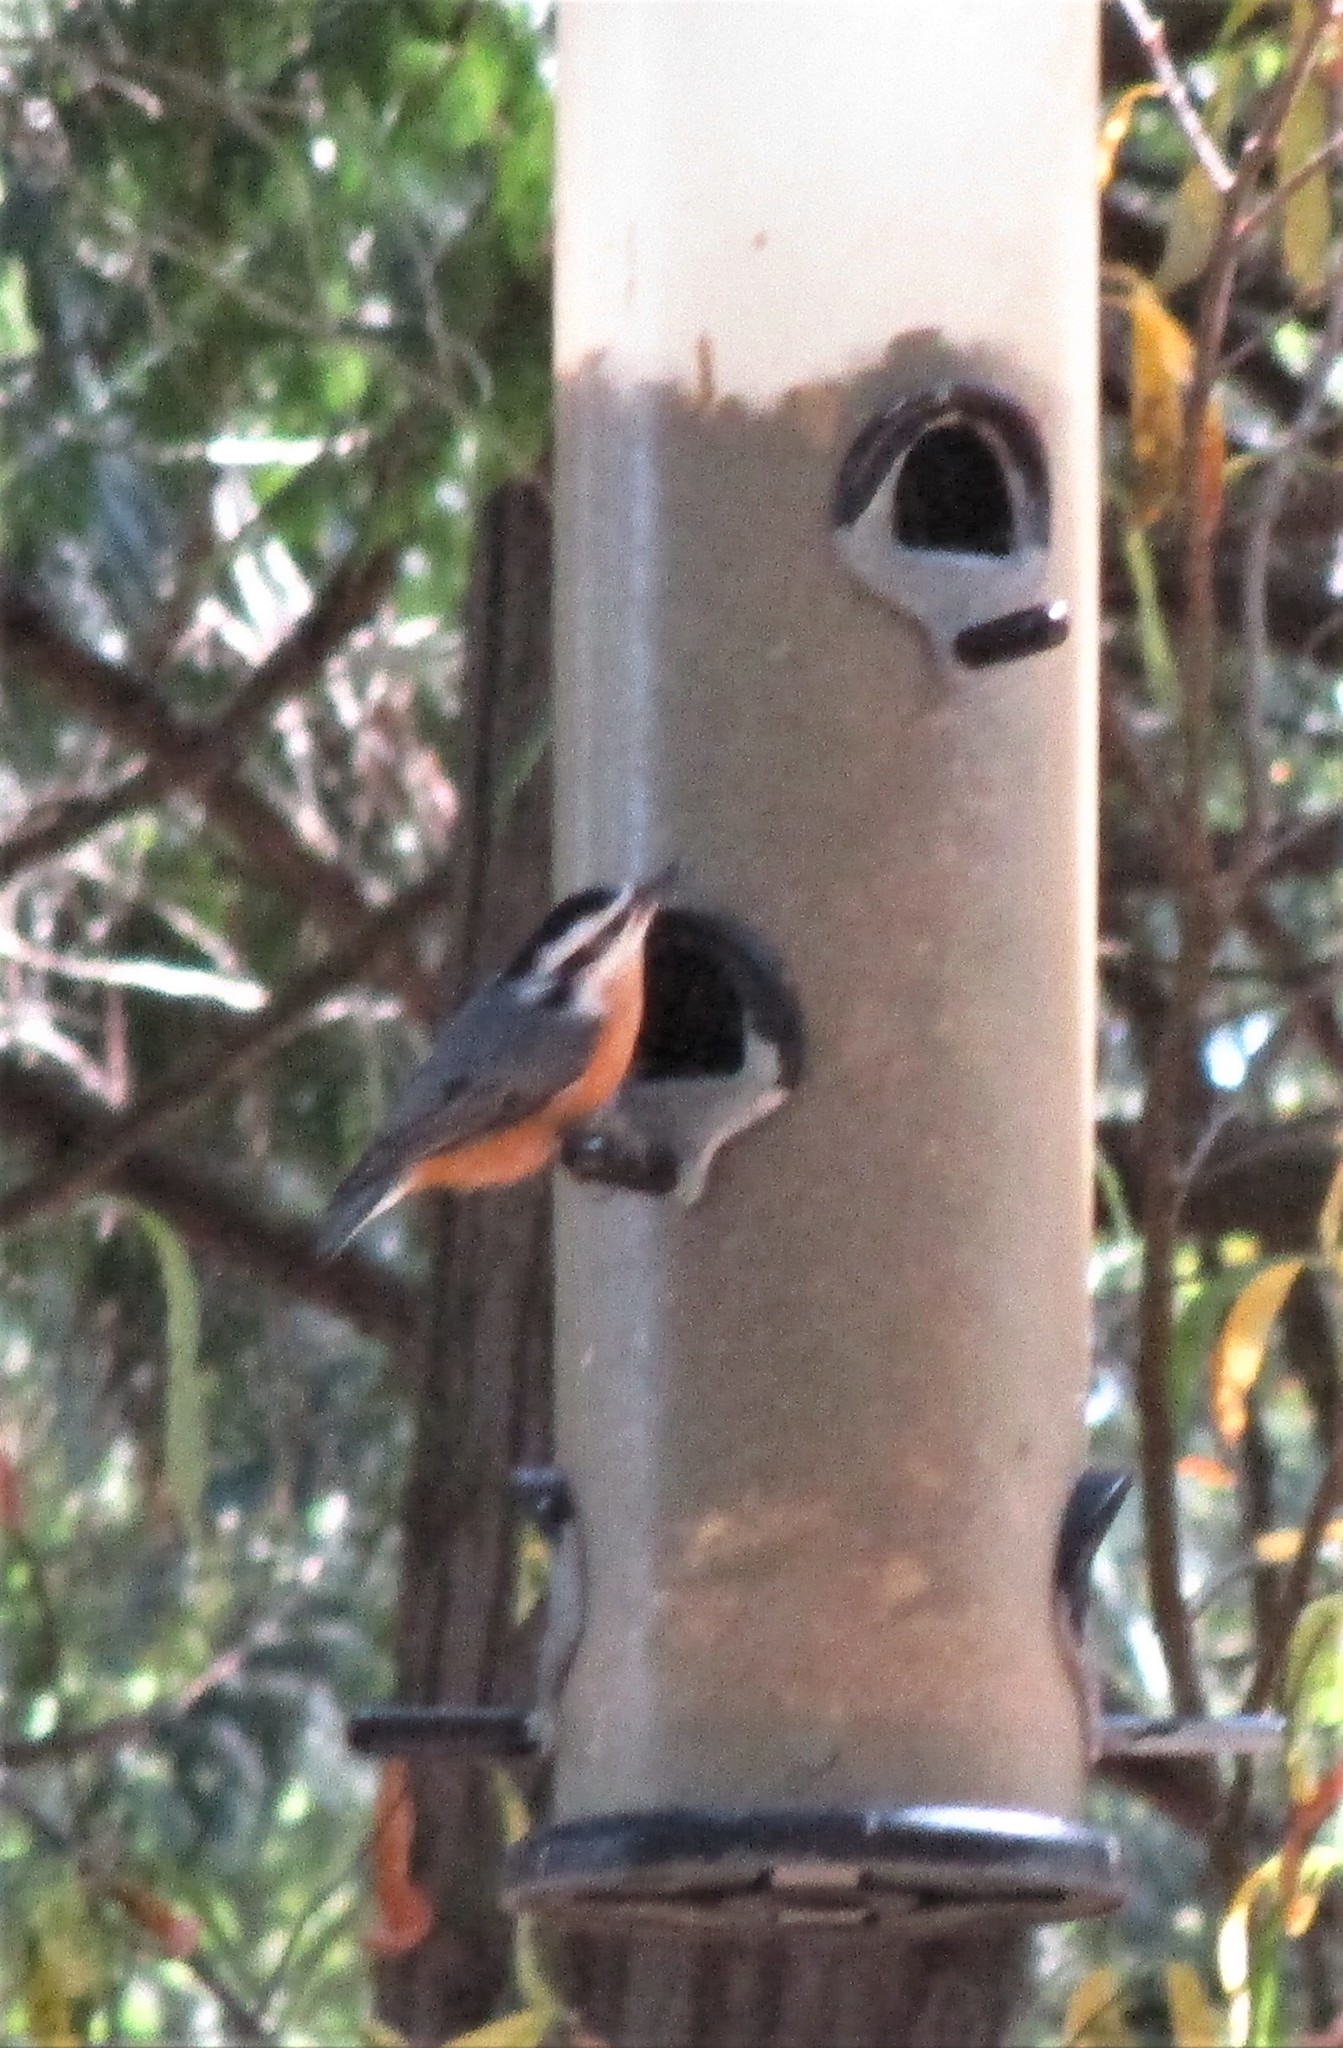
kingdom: Animalia
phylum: Chordata
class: Aves
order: Passeriformes
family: Sittidae
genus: Sitta
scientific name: Sitta canadensis
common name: Red-breasted nuthatch
